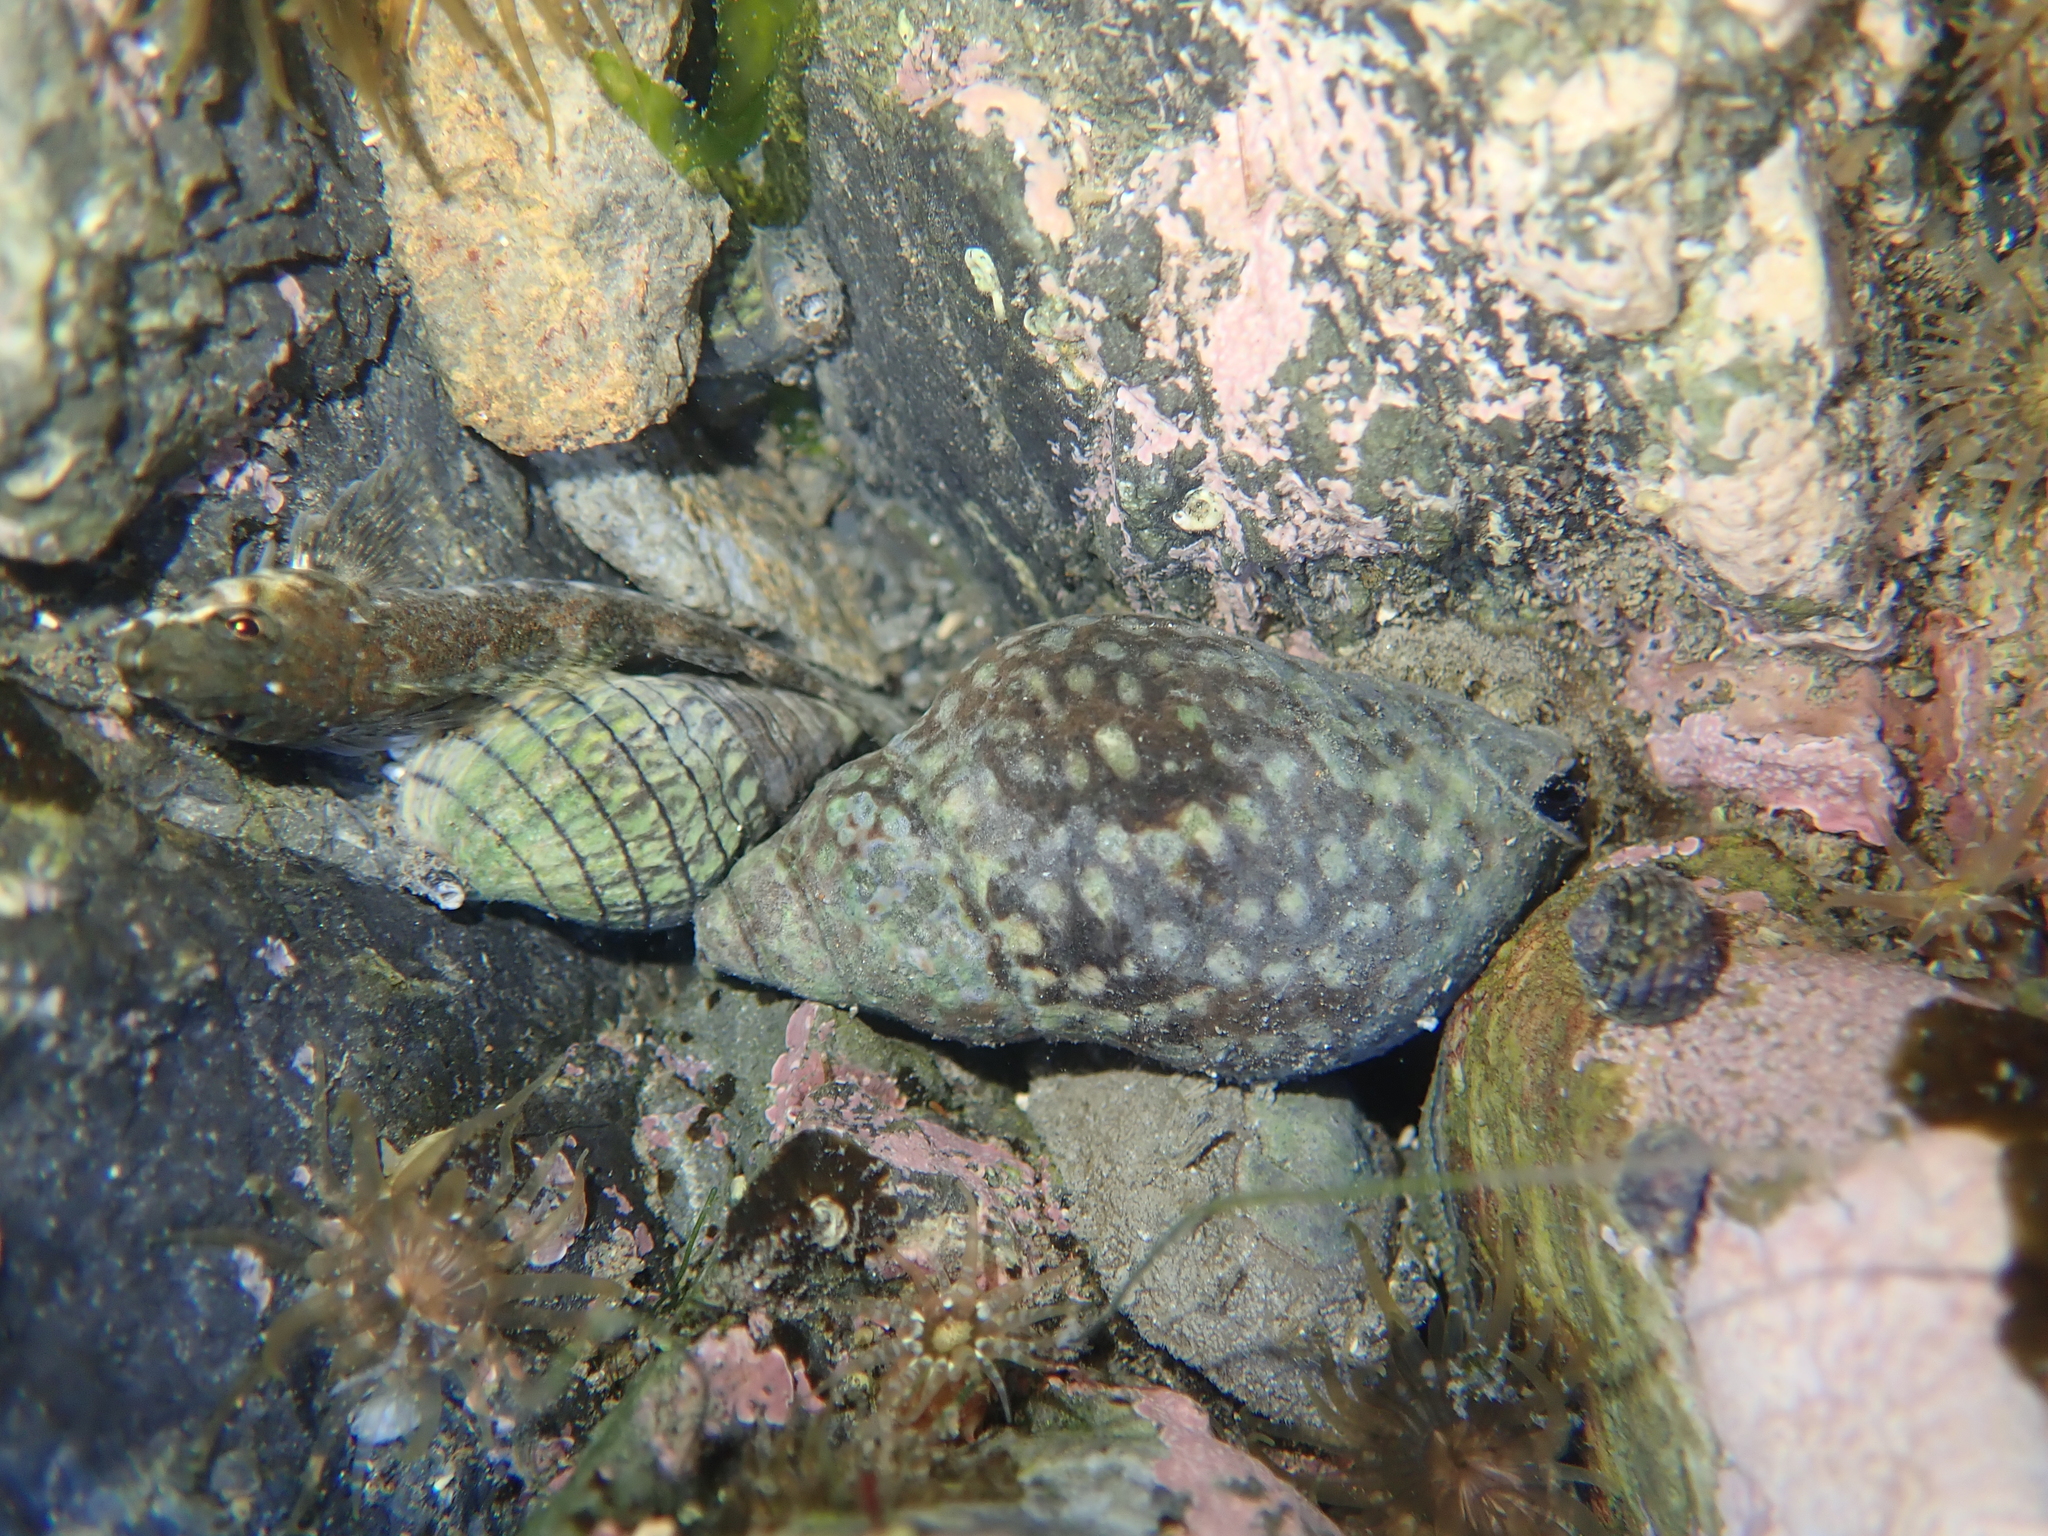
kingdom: Animalia
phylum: Mollusca
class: Gastropoda
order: Neogastropoda
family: Cominellidae
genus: Cominella
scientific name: Cominella maculosa
